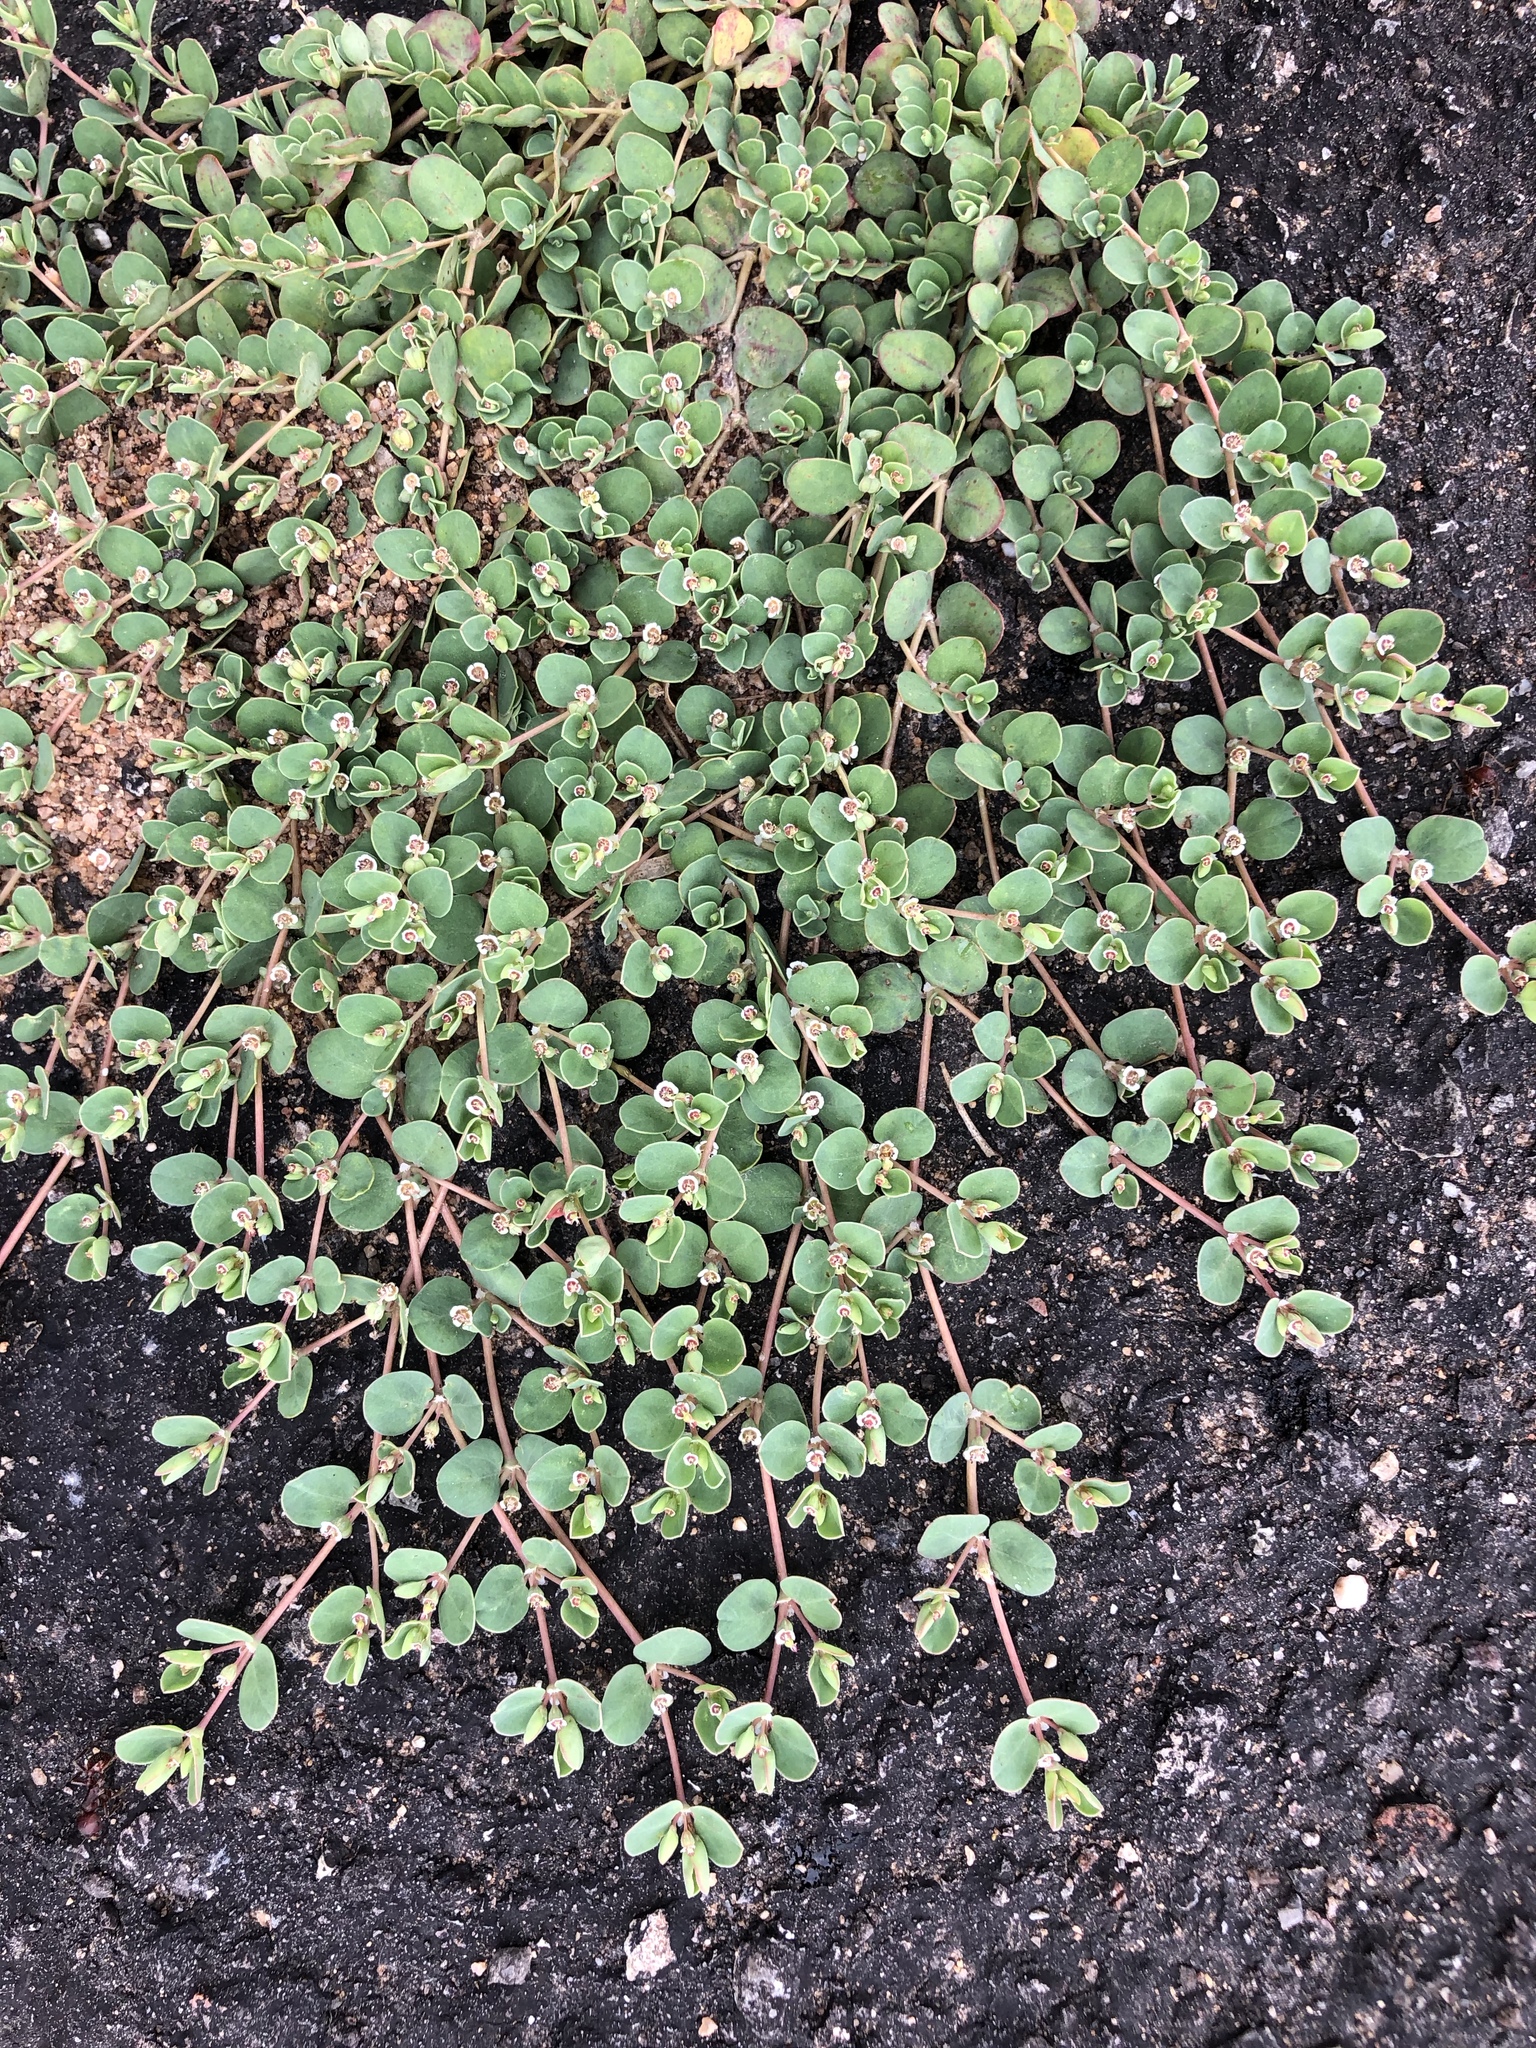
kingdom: Plantae
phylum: Tracheophyta
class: Magnoliopsida
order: Malpighiales
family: Euphorbiaceae
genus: Euphorbia
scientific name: Euphorbia albomarginata
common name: Whitemargin sandmat
